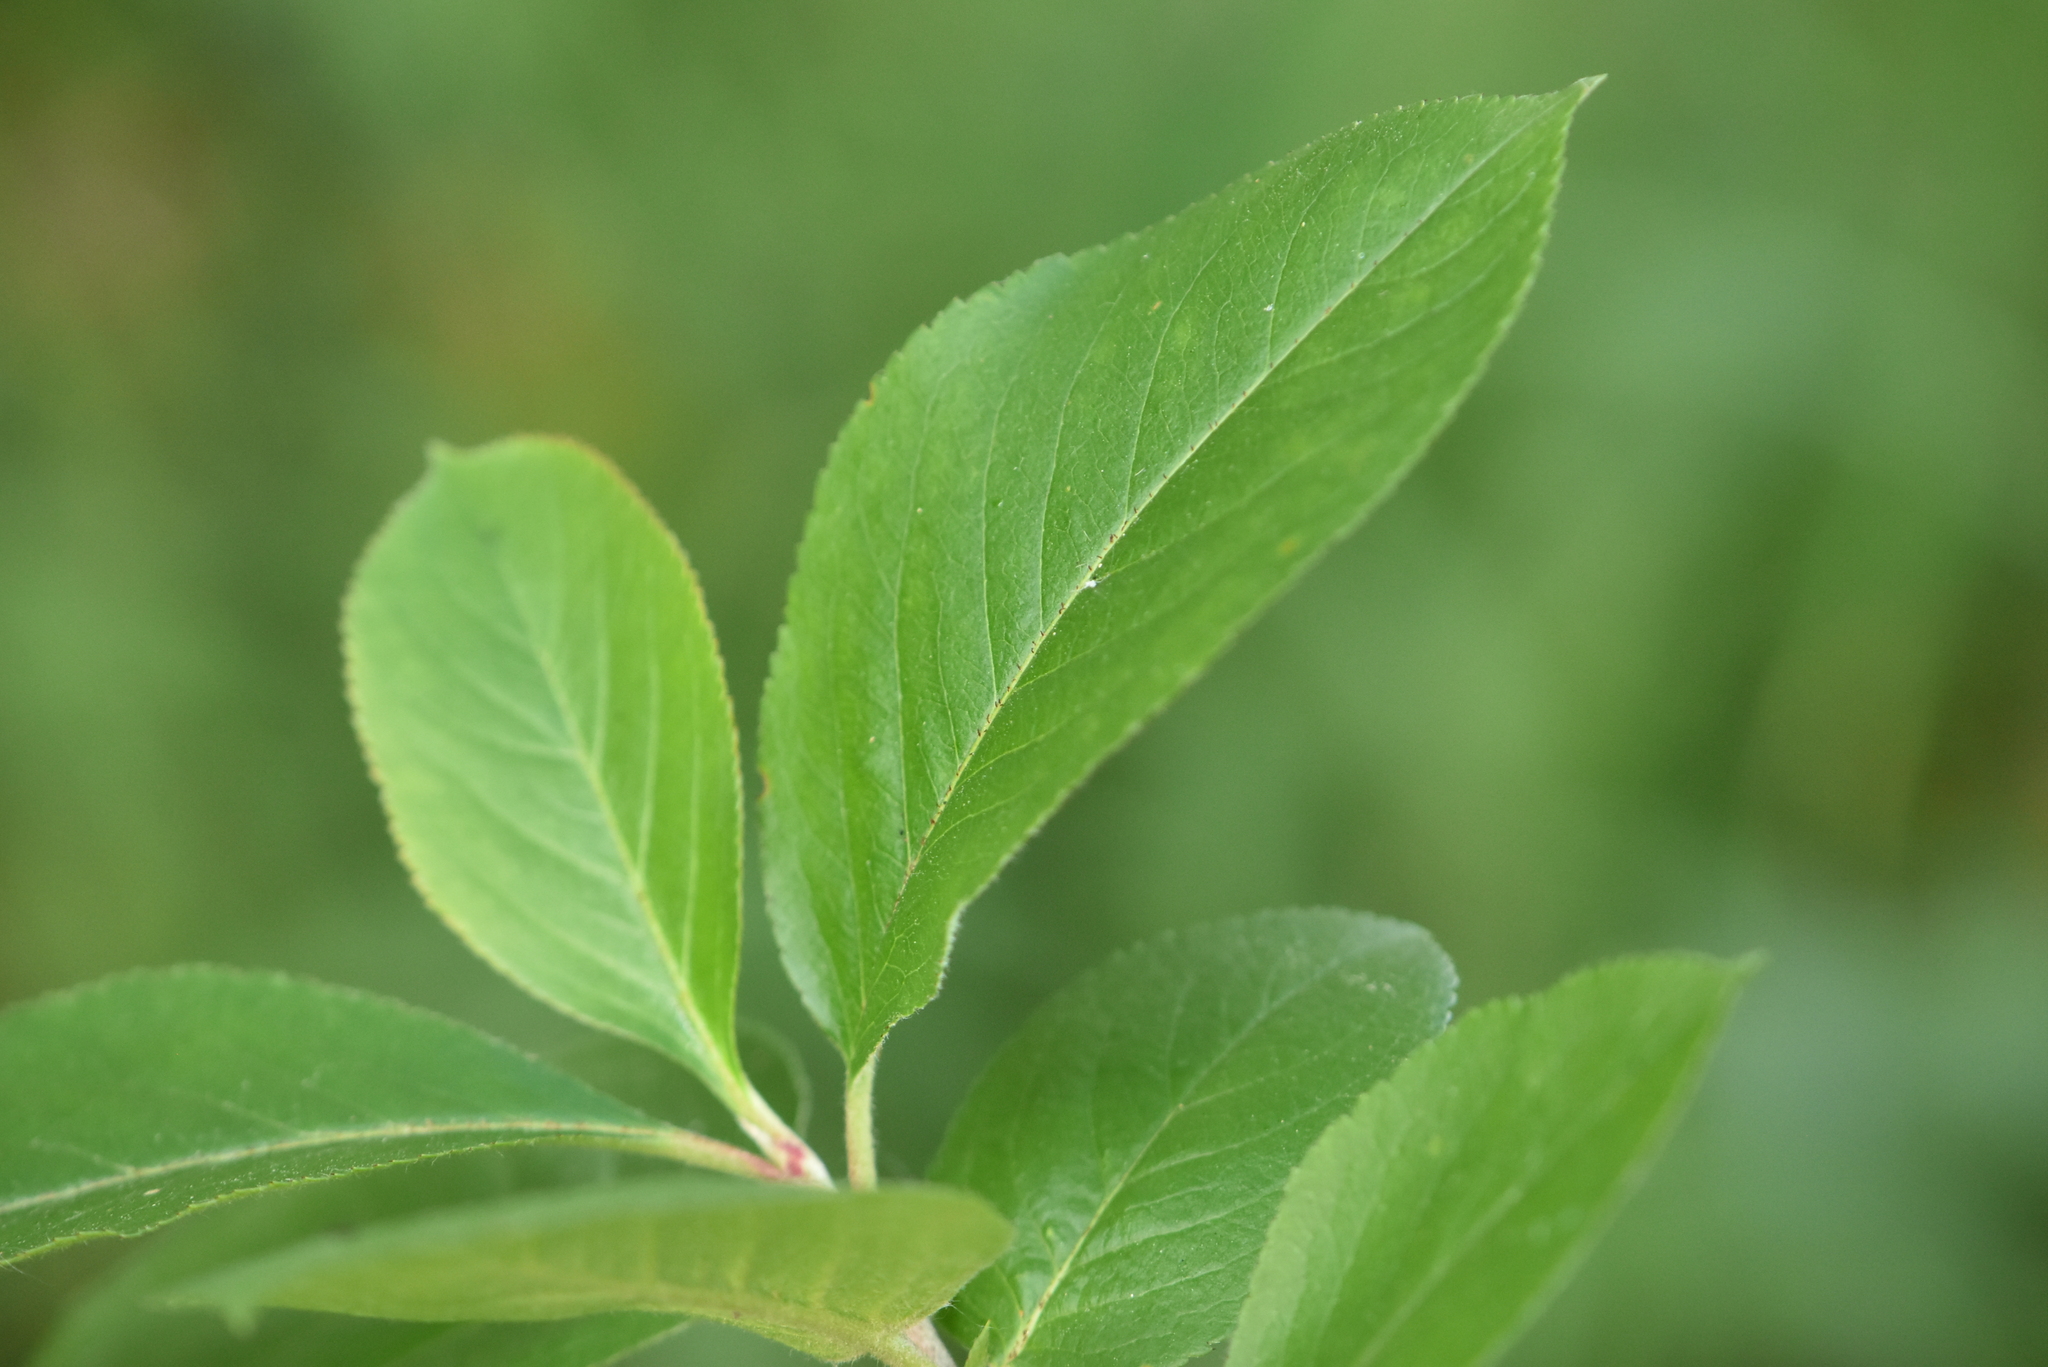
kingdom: Plantae
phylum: Tracheophyta
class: Magnoliopsida
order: Rosales
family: Rosaceae
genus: Sorbaronia
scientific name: Sorbaronia arsenii
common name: Arsène's mountain-ash
